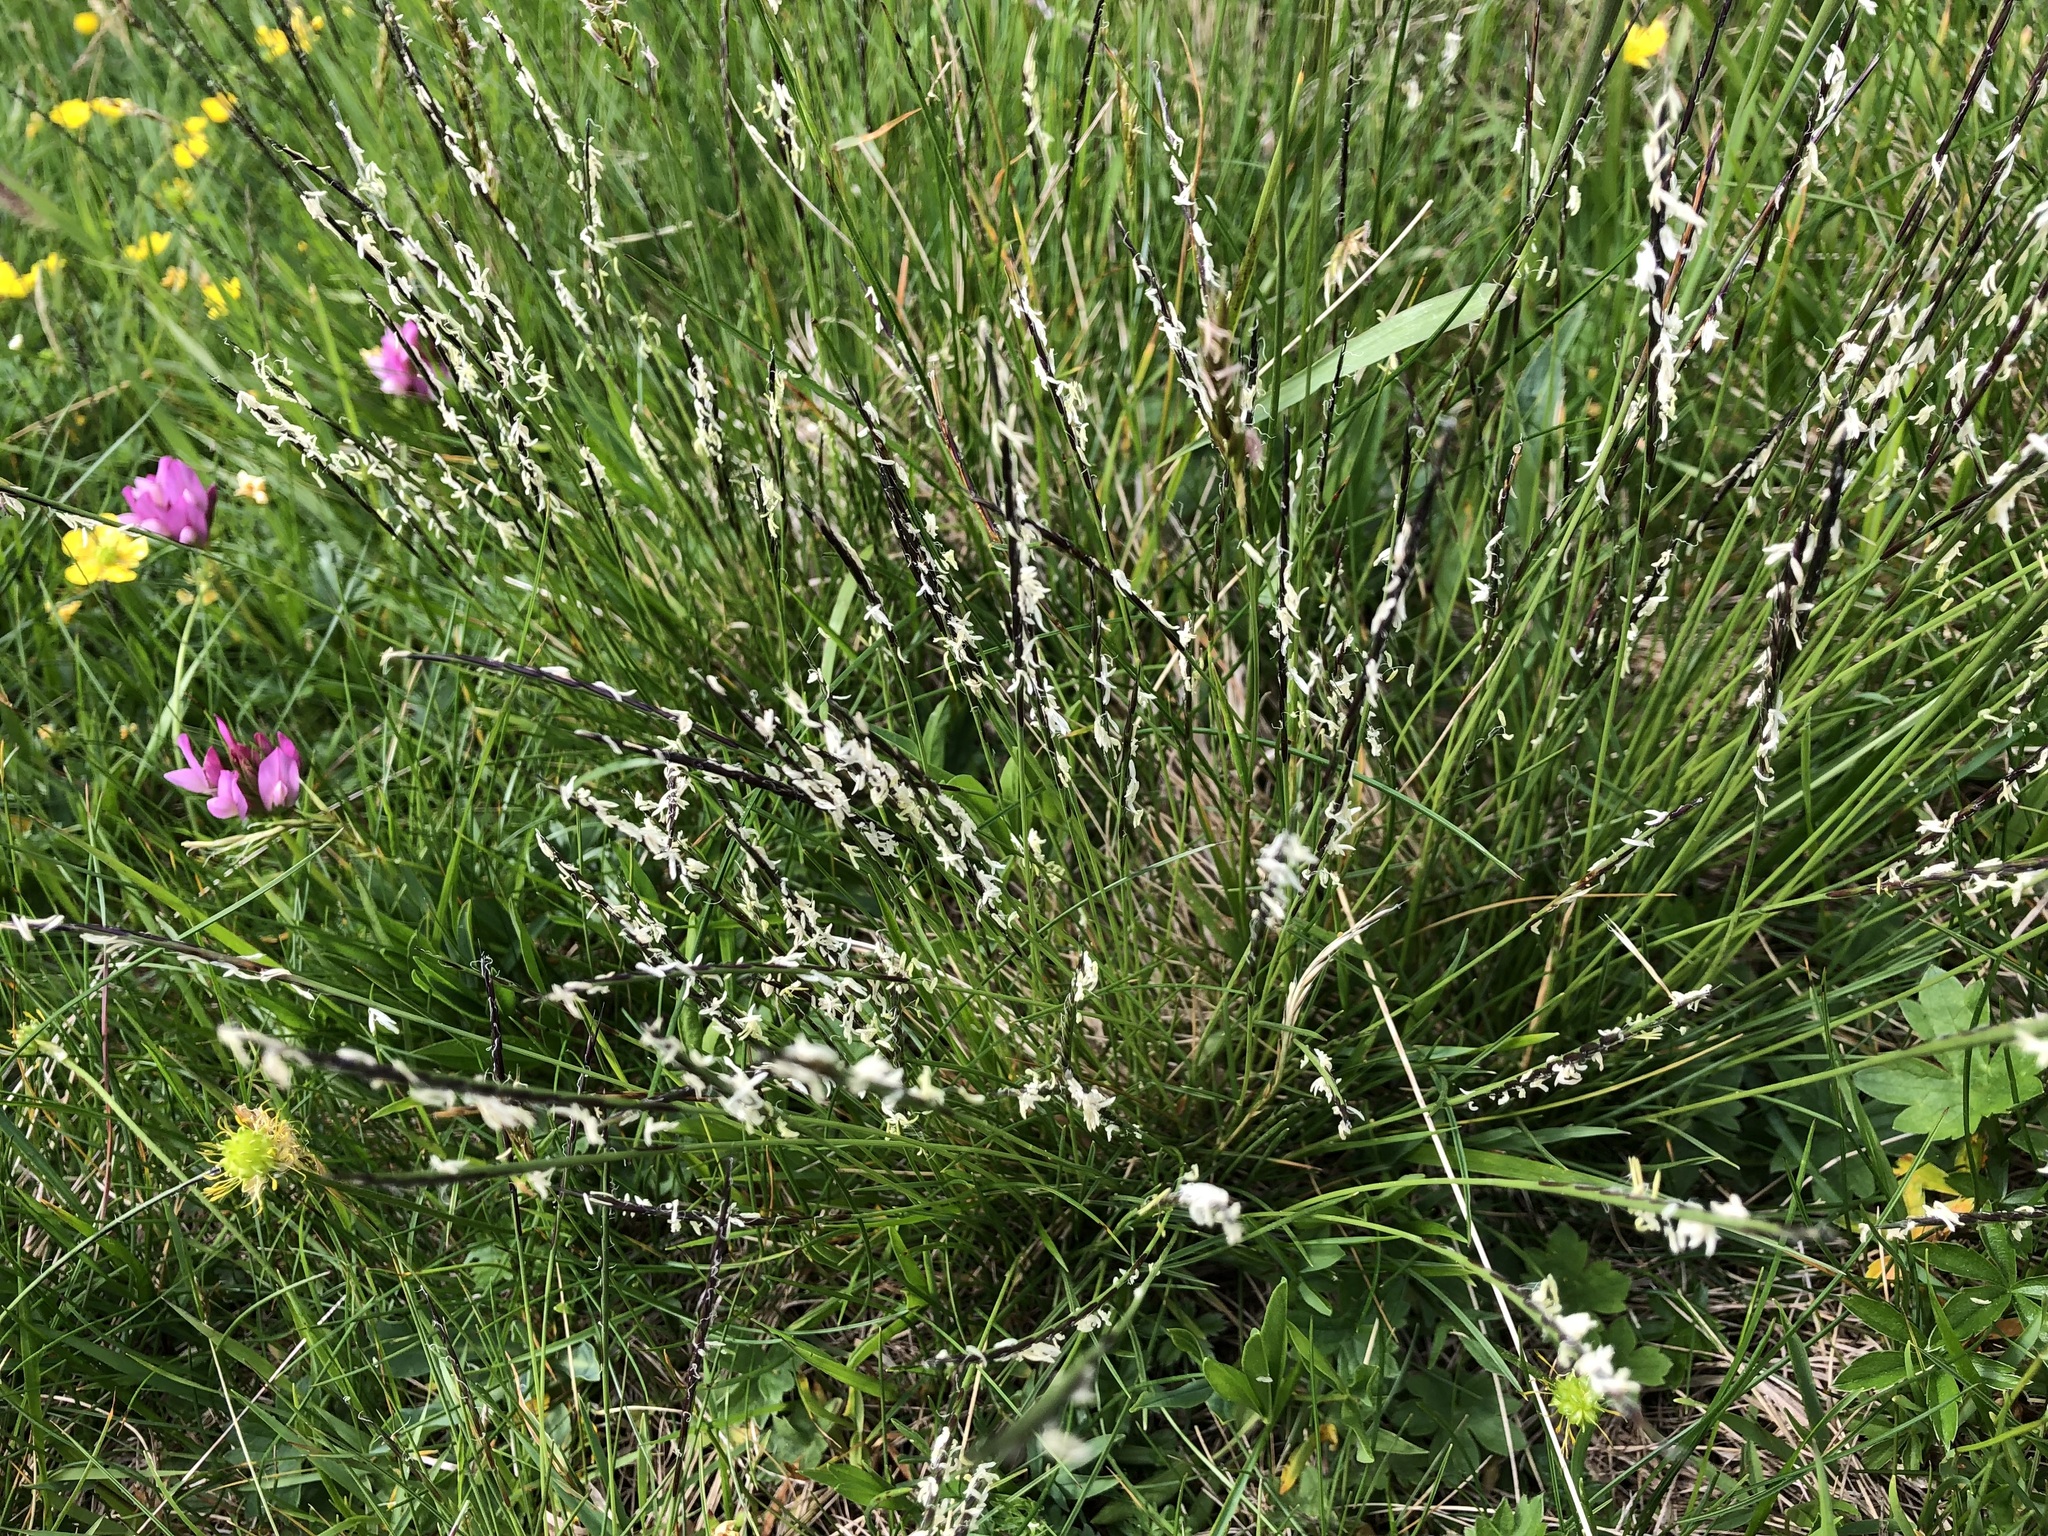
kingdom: Plantae
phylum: Tracheophyta
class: Liliopsida
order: Poales
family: Poaceae
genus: Nardus
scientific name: Nardus stricta
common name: Mat-grass
